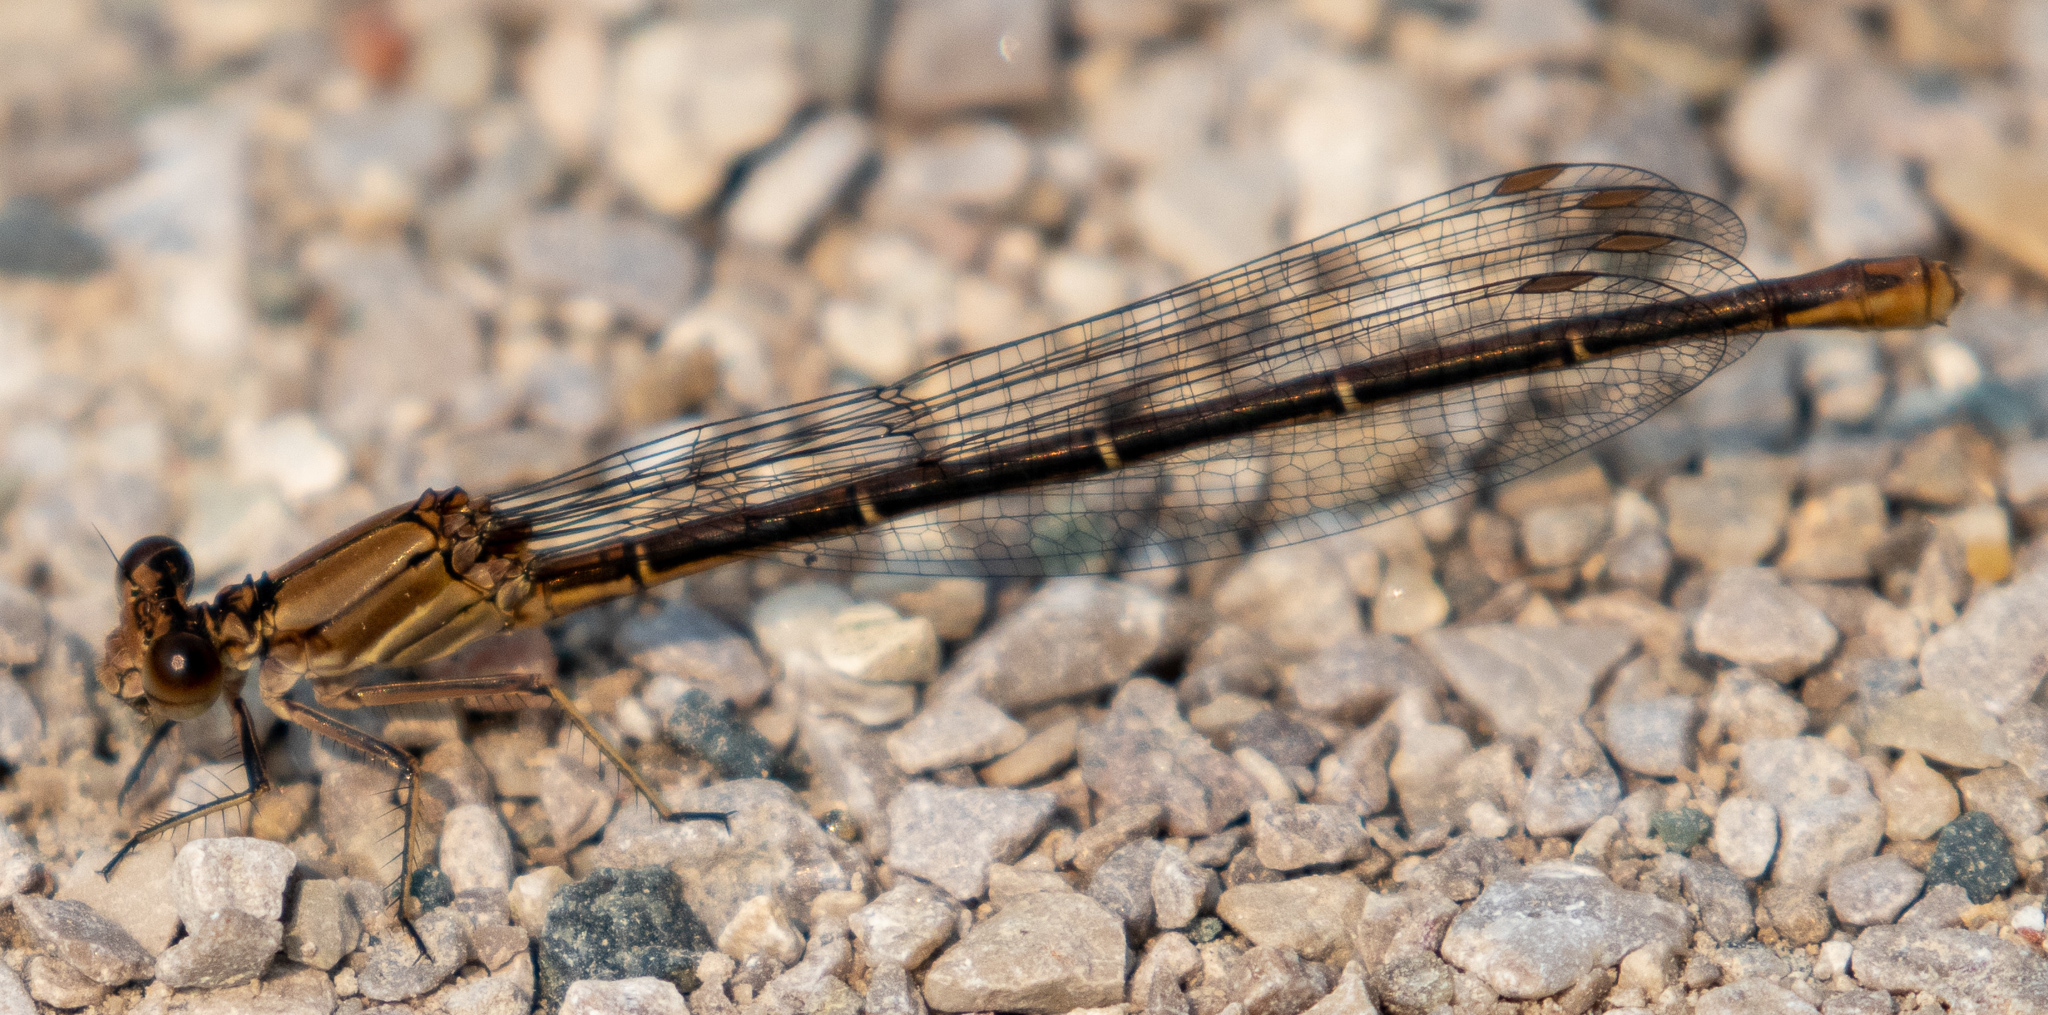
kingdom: Animalia
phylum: Arthropoda
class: Insecta
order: Odonata
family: Coenagrionidae
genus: Argia
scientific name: Argia moesta
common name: Powdered dancer
